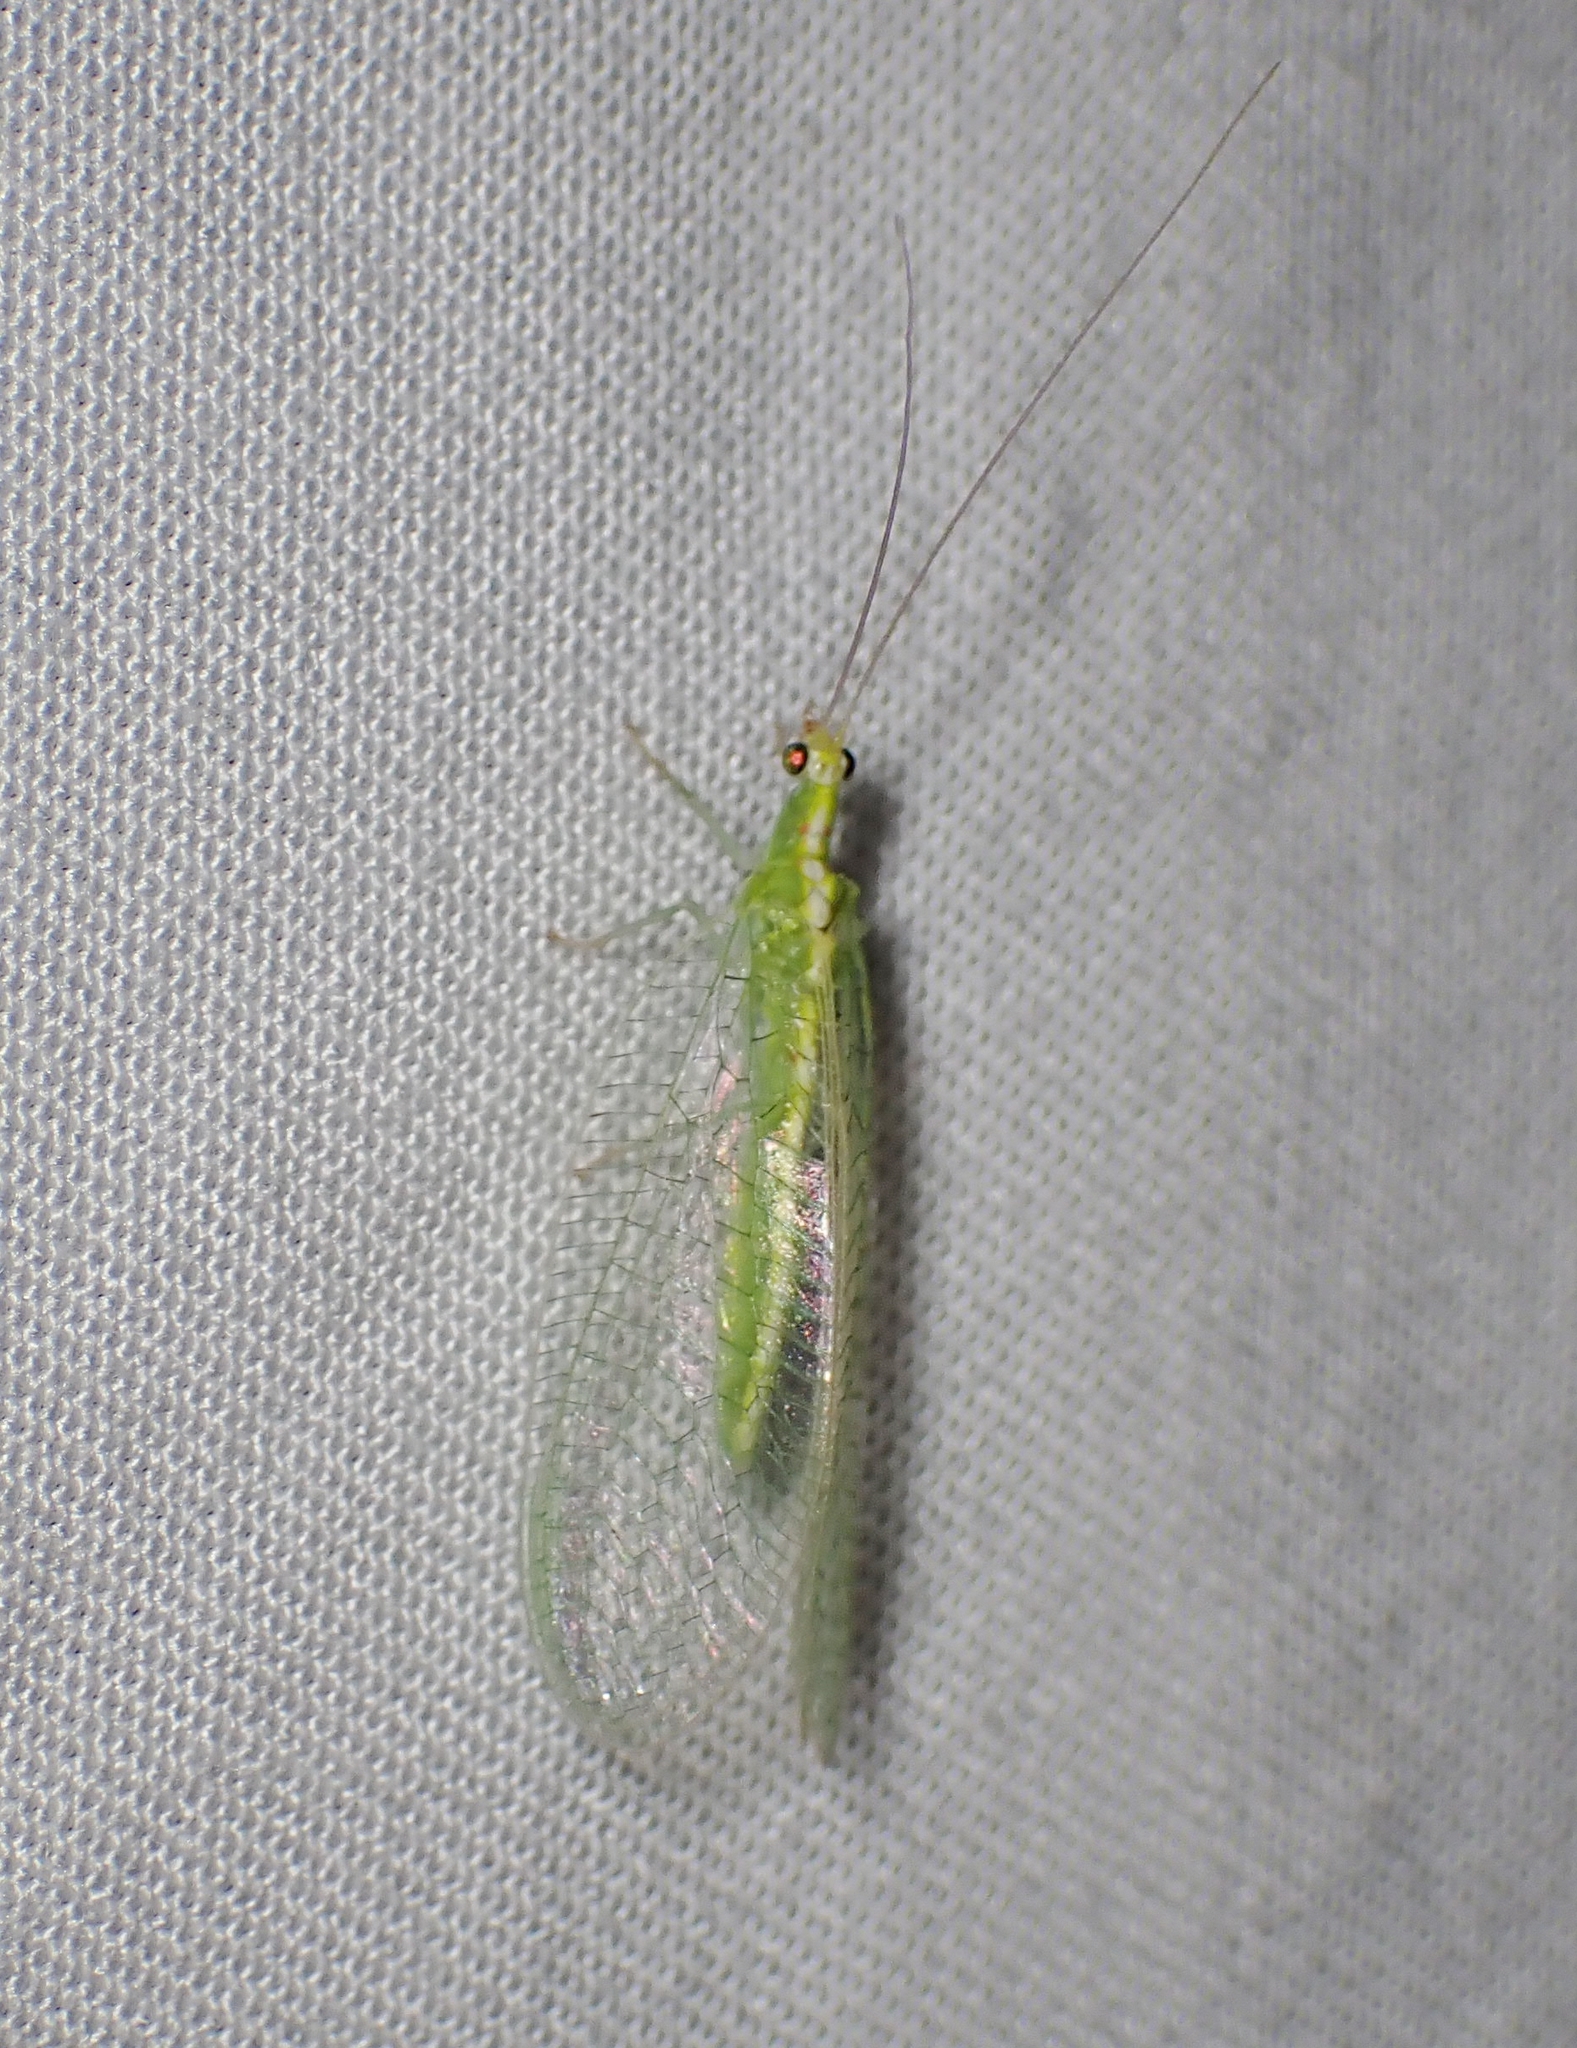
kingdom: Animalia
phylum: Arthropoda
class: Insecta
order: Neuroptera
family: Chrysopidae
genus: Chrysopa
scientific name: Chrysopa quadripunctata
